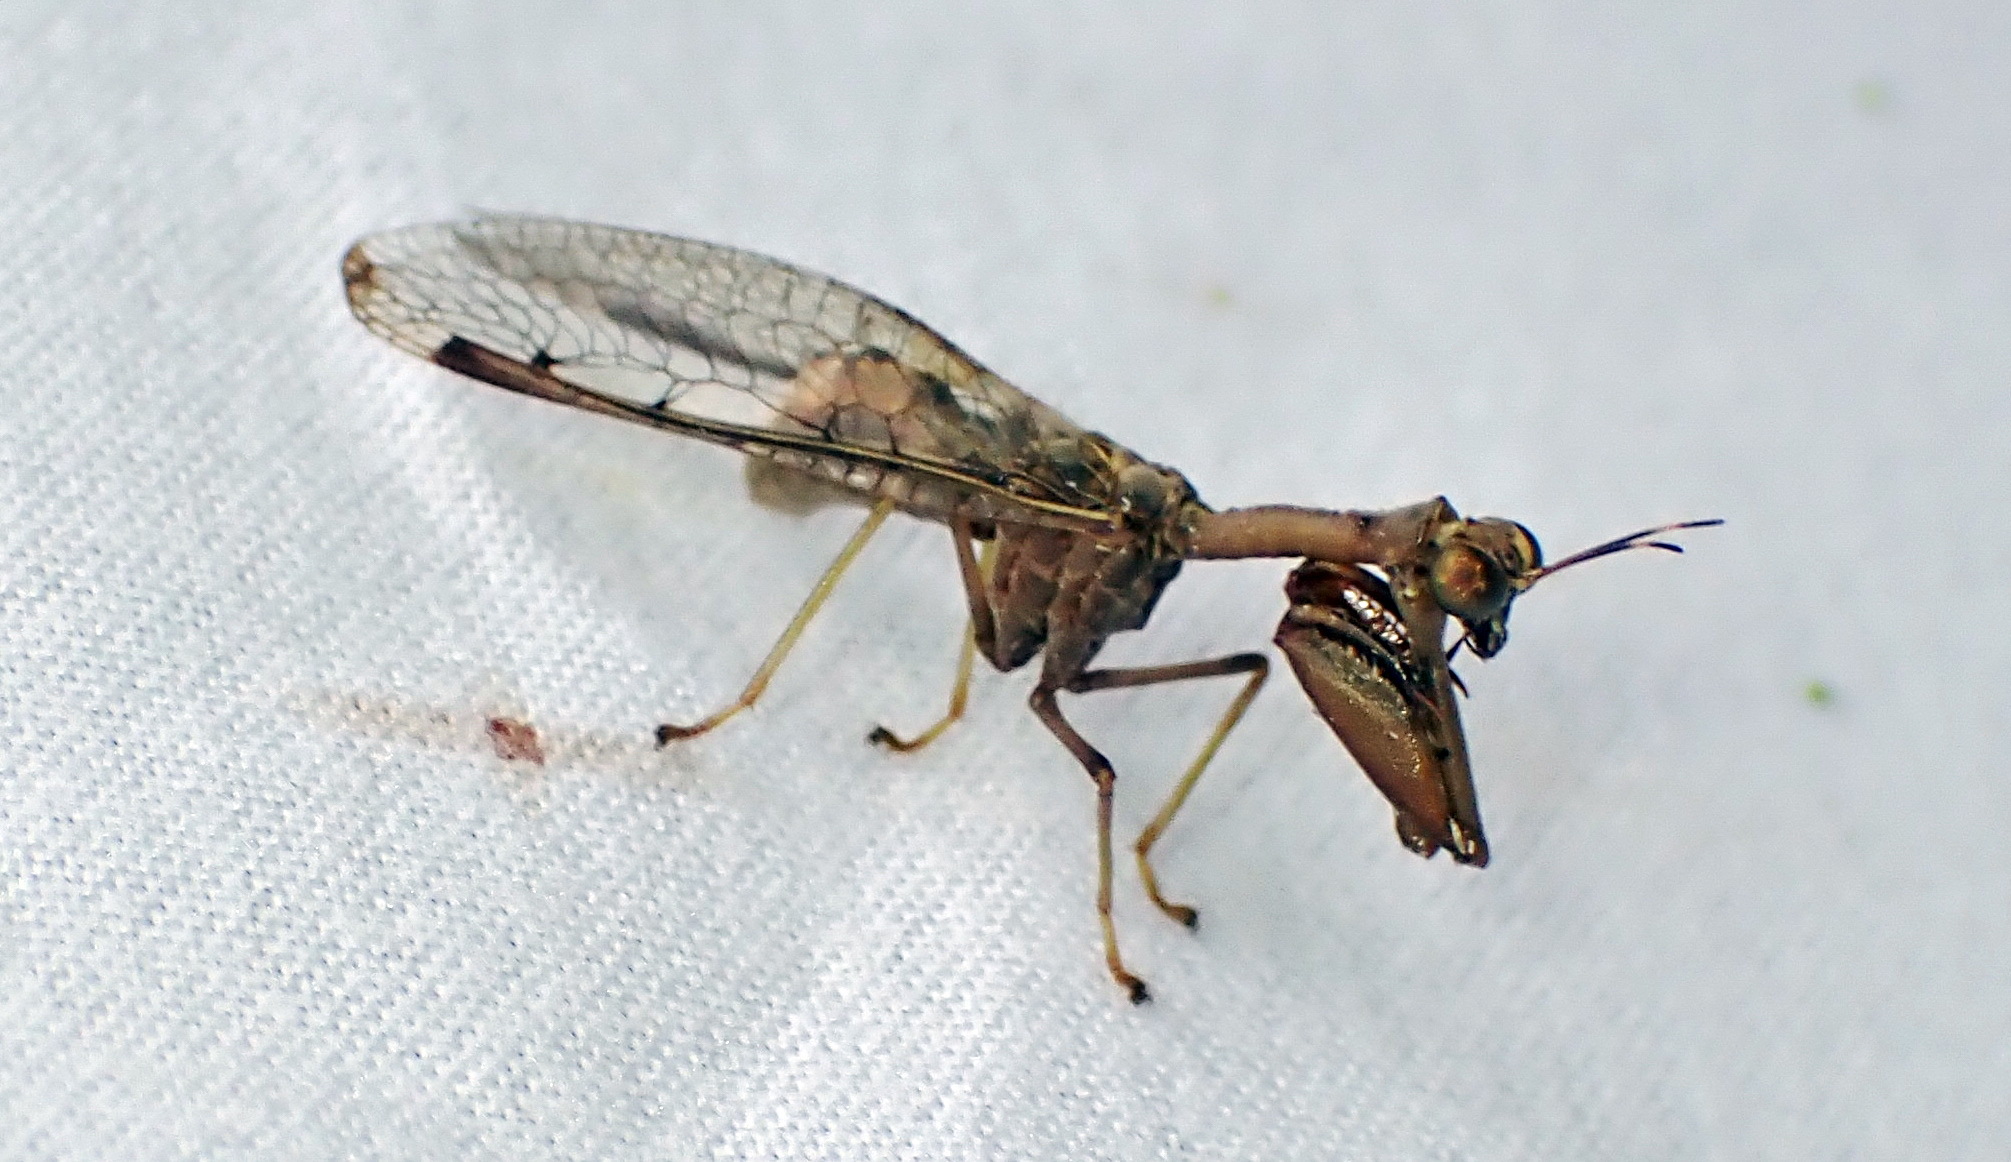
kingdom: Animalia
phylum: Arthropoda
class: Insecta
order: Neuroptera
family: Mantispidae
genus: Dicromantispa
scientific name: Dicromantispa interrupta
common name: Four-spotted mantidfly
